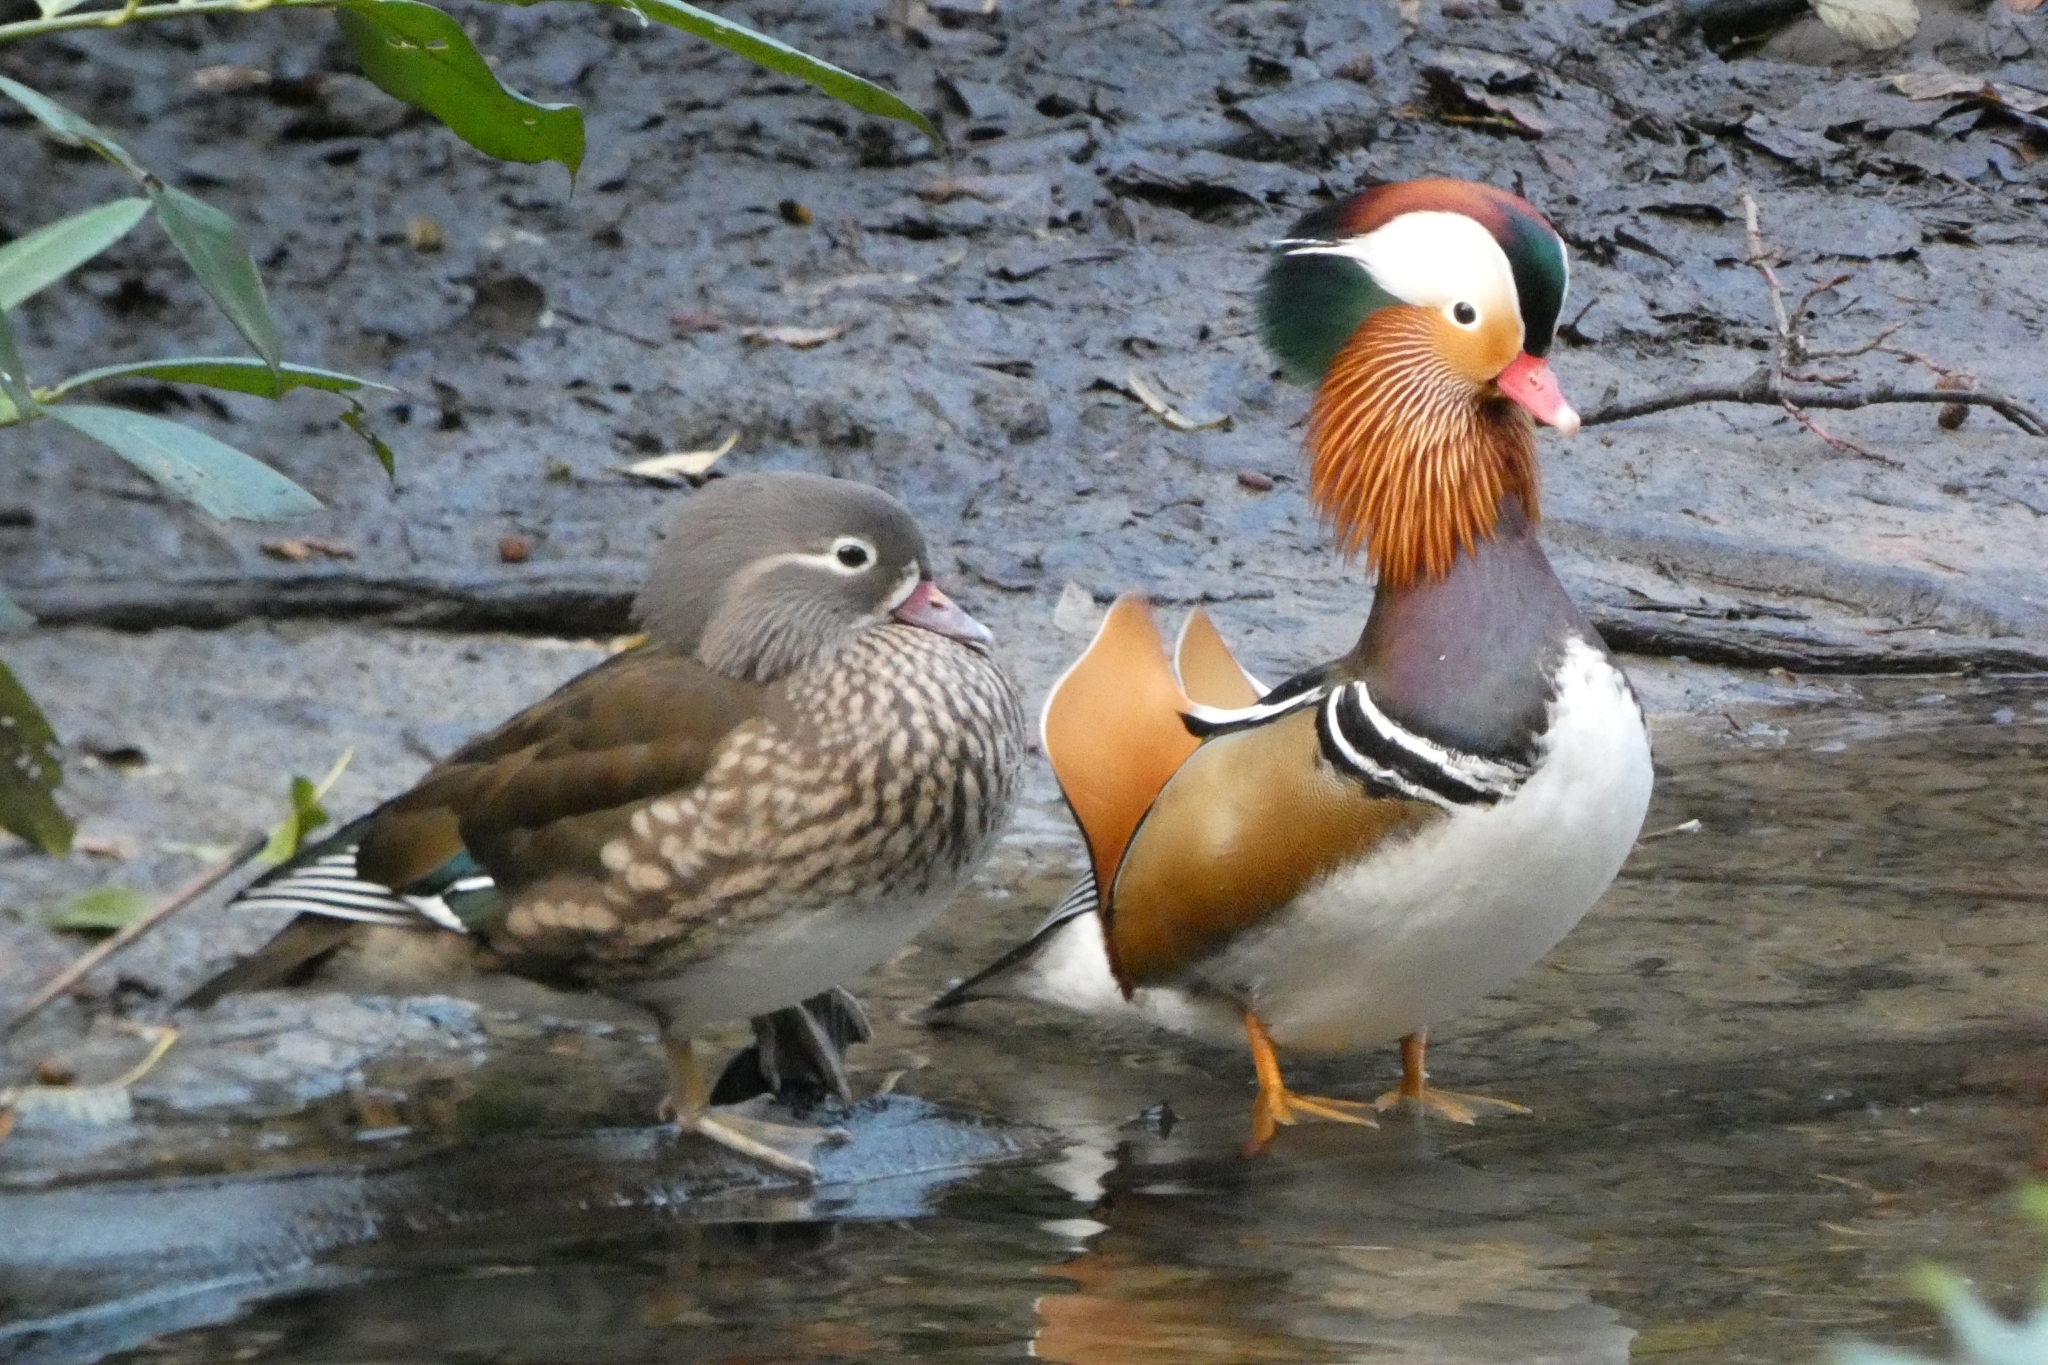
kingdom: Animalia
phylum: Chordata
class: Aves
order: Anseriformes
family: Anatidae
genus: Aix
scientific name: Aix galericulata
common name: Mandarin duck
